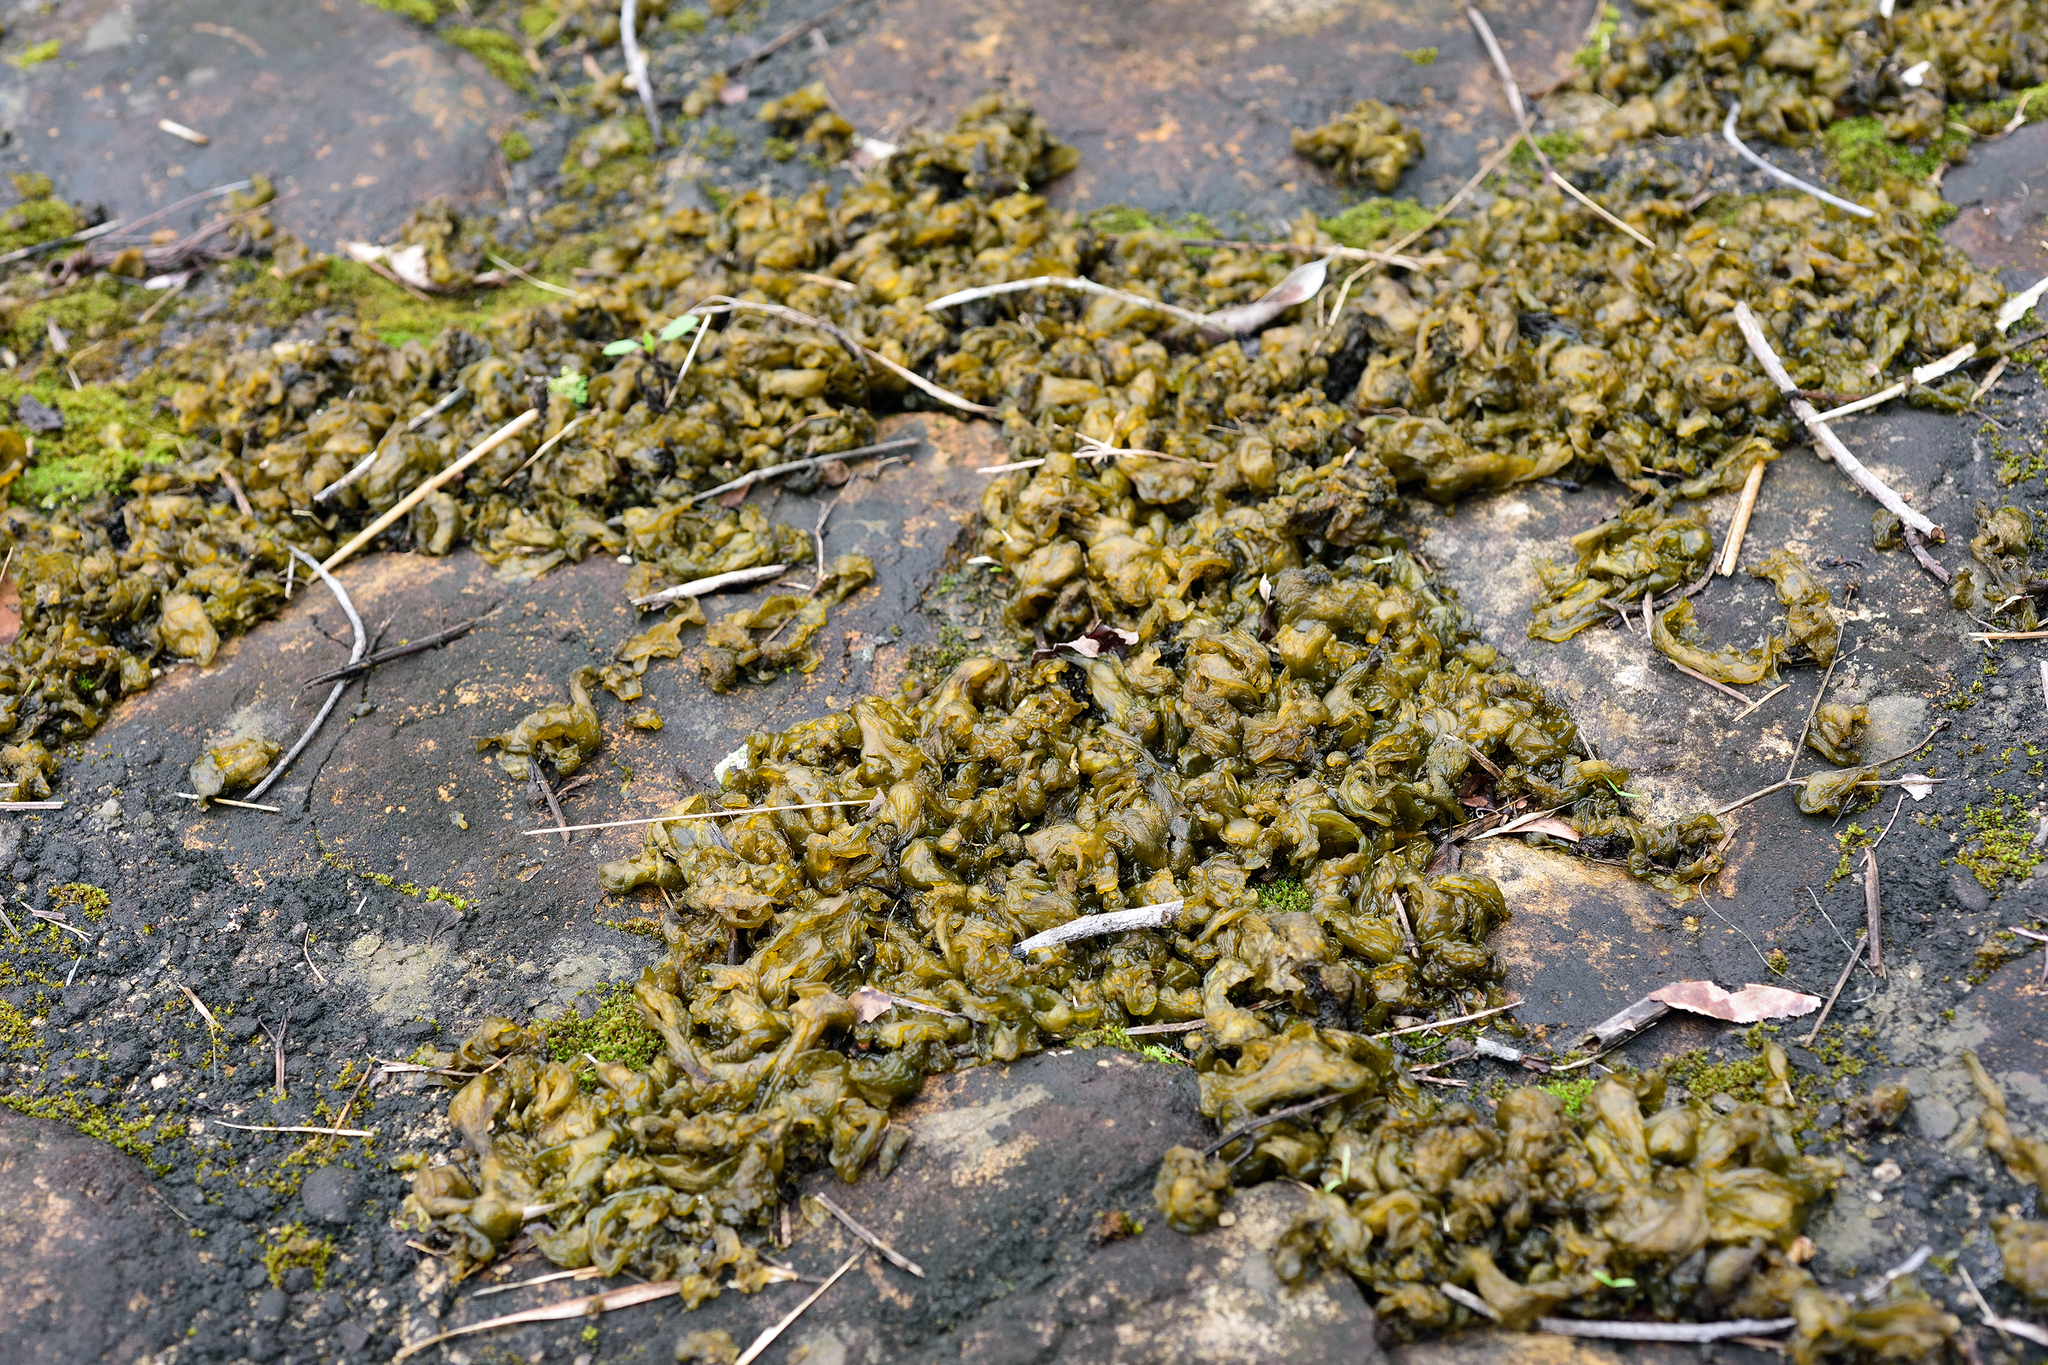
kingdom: Bacteria
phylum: Cyanobacteria
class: Cyanobacteriia
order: Cyanobacteriales
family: Nostocaceae
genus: Nostoc
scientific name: Nostoc commune
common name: Star jelly
